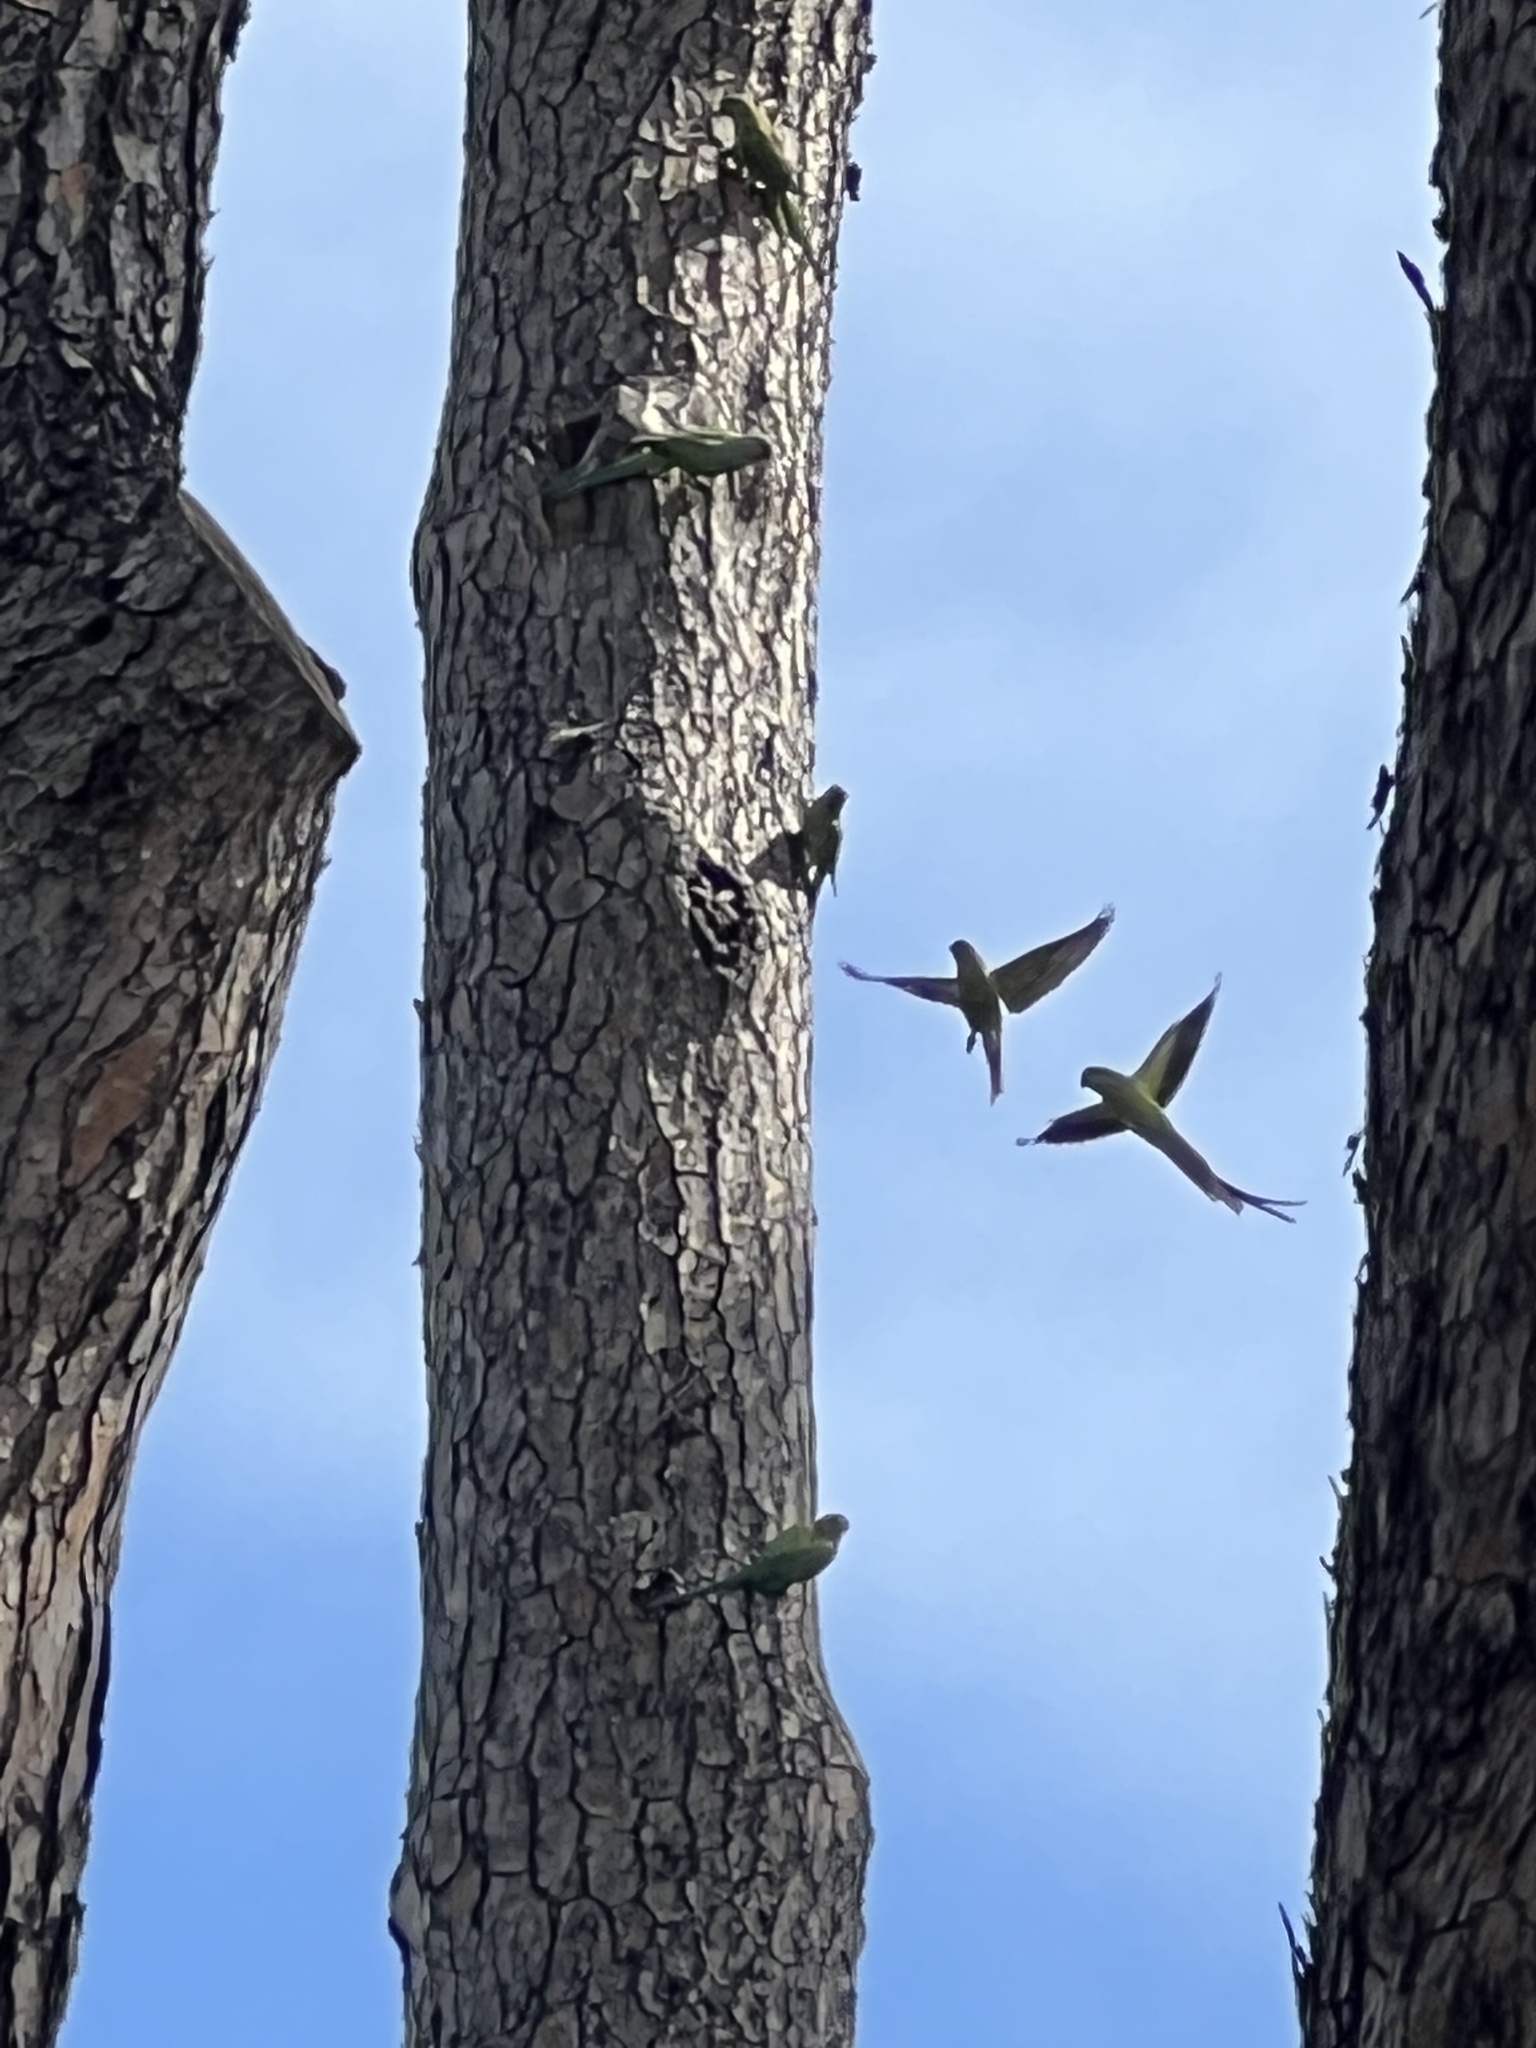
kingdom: Animalia
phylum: Chordata
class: Aves
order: Psittaciformes
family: Psittacidae
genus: Psittacula
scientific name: Psittacula krameri
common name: Rose-ringed parakeet
